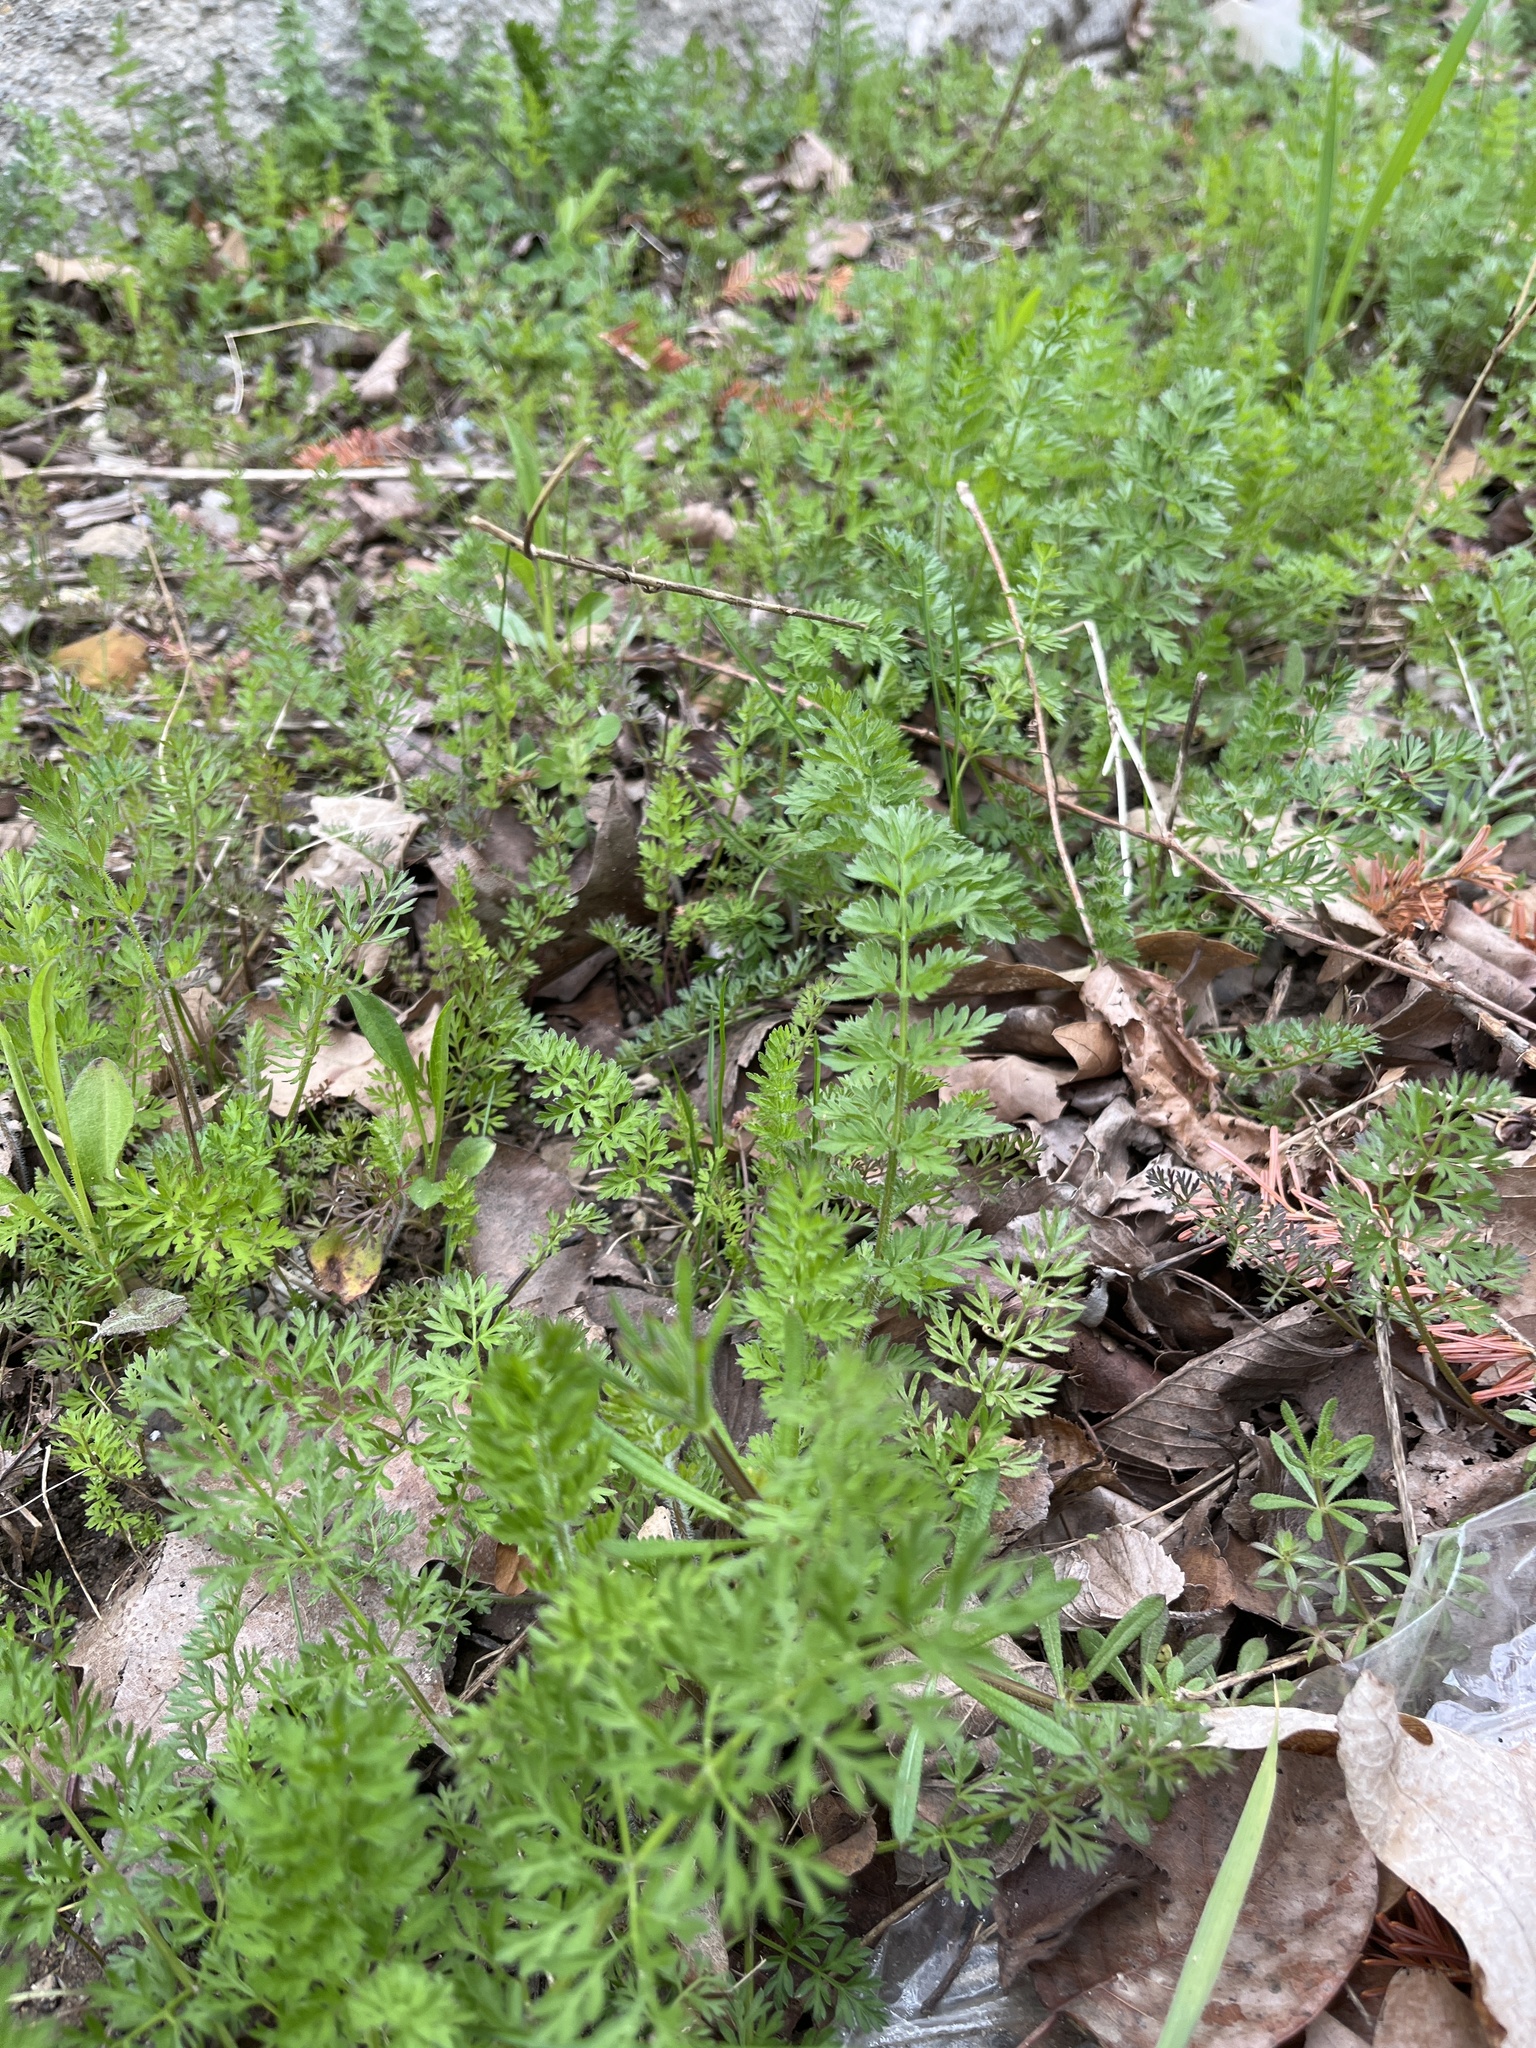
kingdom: Plantae
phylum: Tracheophyta
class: Magnoliopsida
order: Apiales
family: Apiaceae
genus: Daucus
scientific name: Daucus carota
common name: Wild carrot
